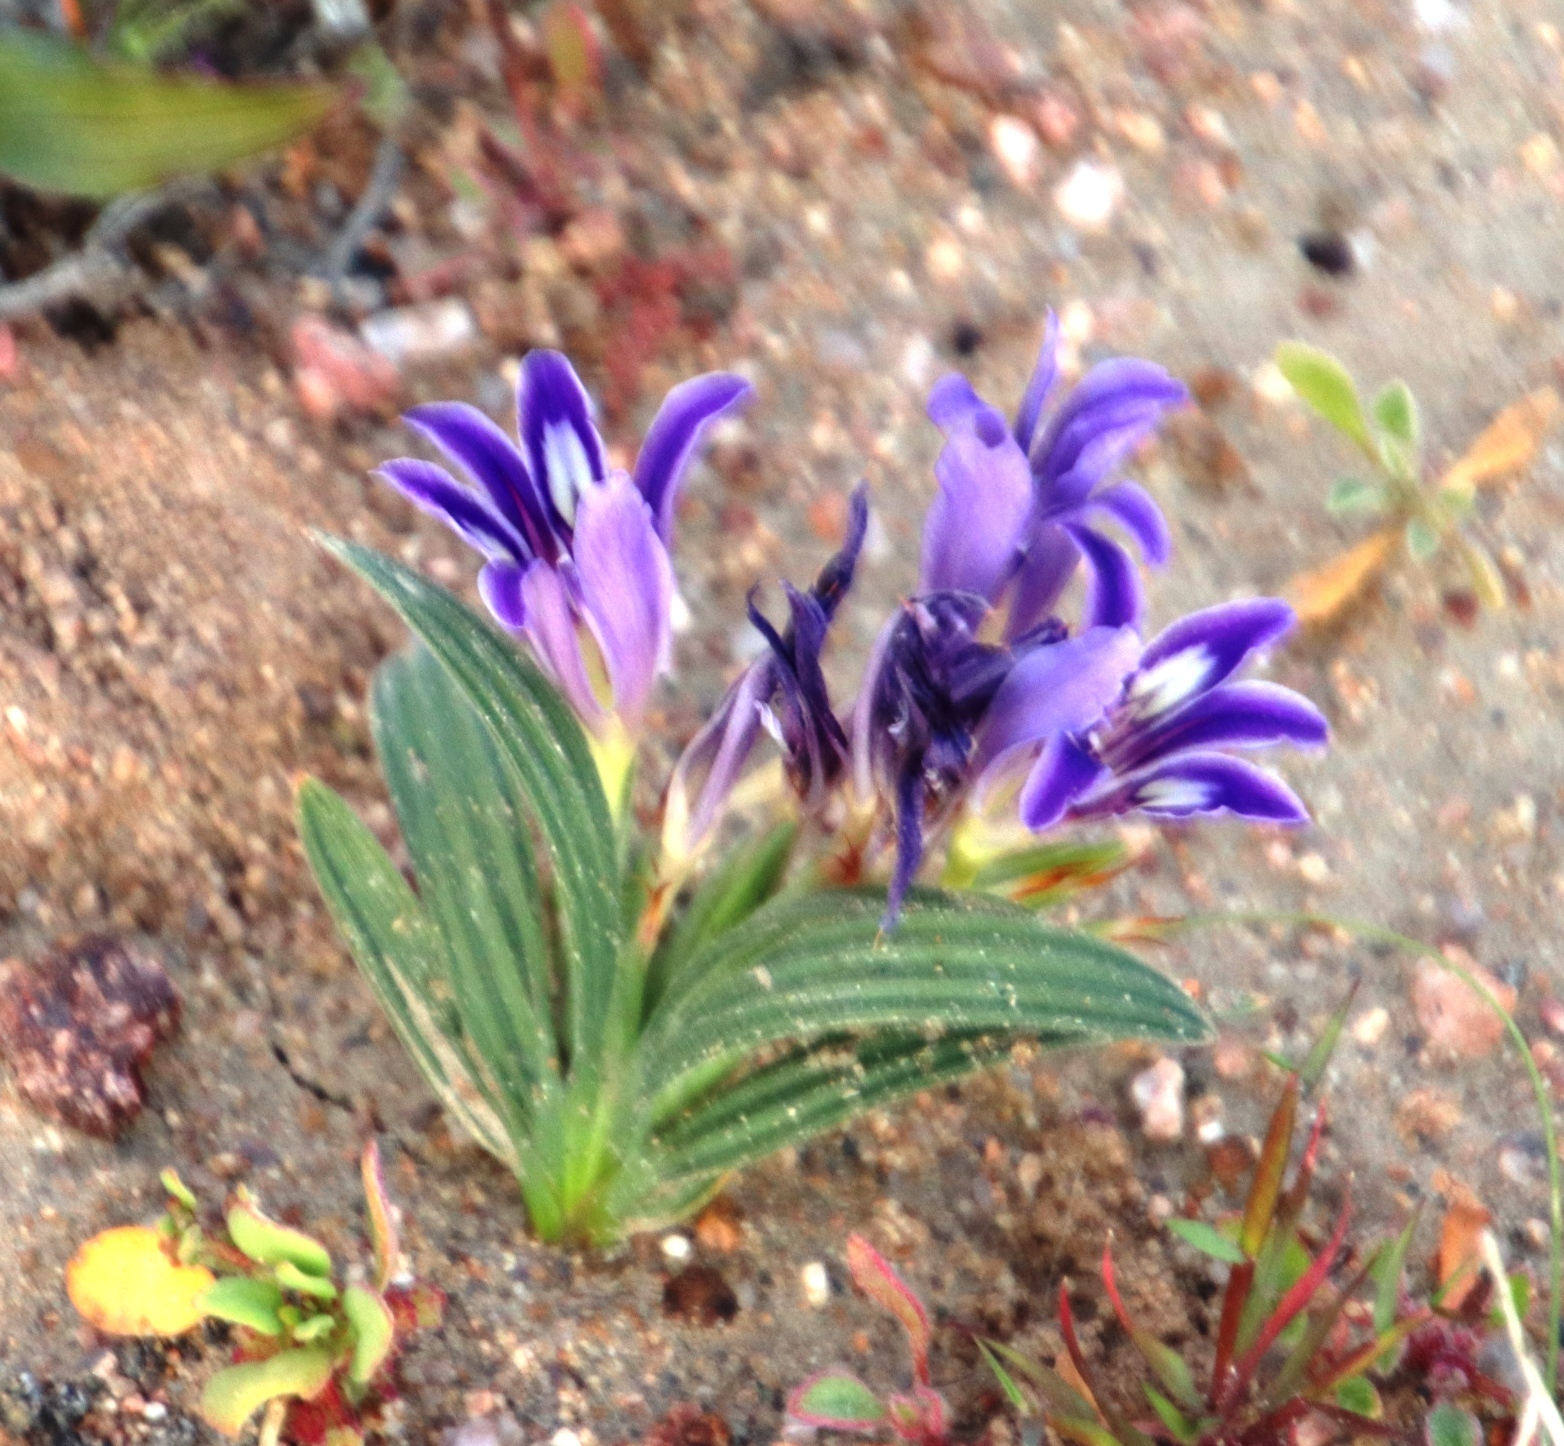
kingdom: Plantae
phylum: Tracheophyta
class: Liliopsida
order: Asparagales
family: Iridaceae
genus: Babiana
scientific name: Babiana curviscapa
